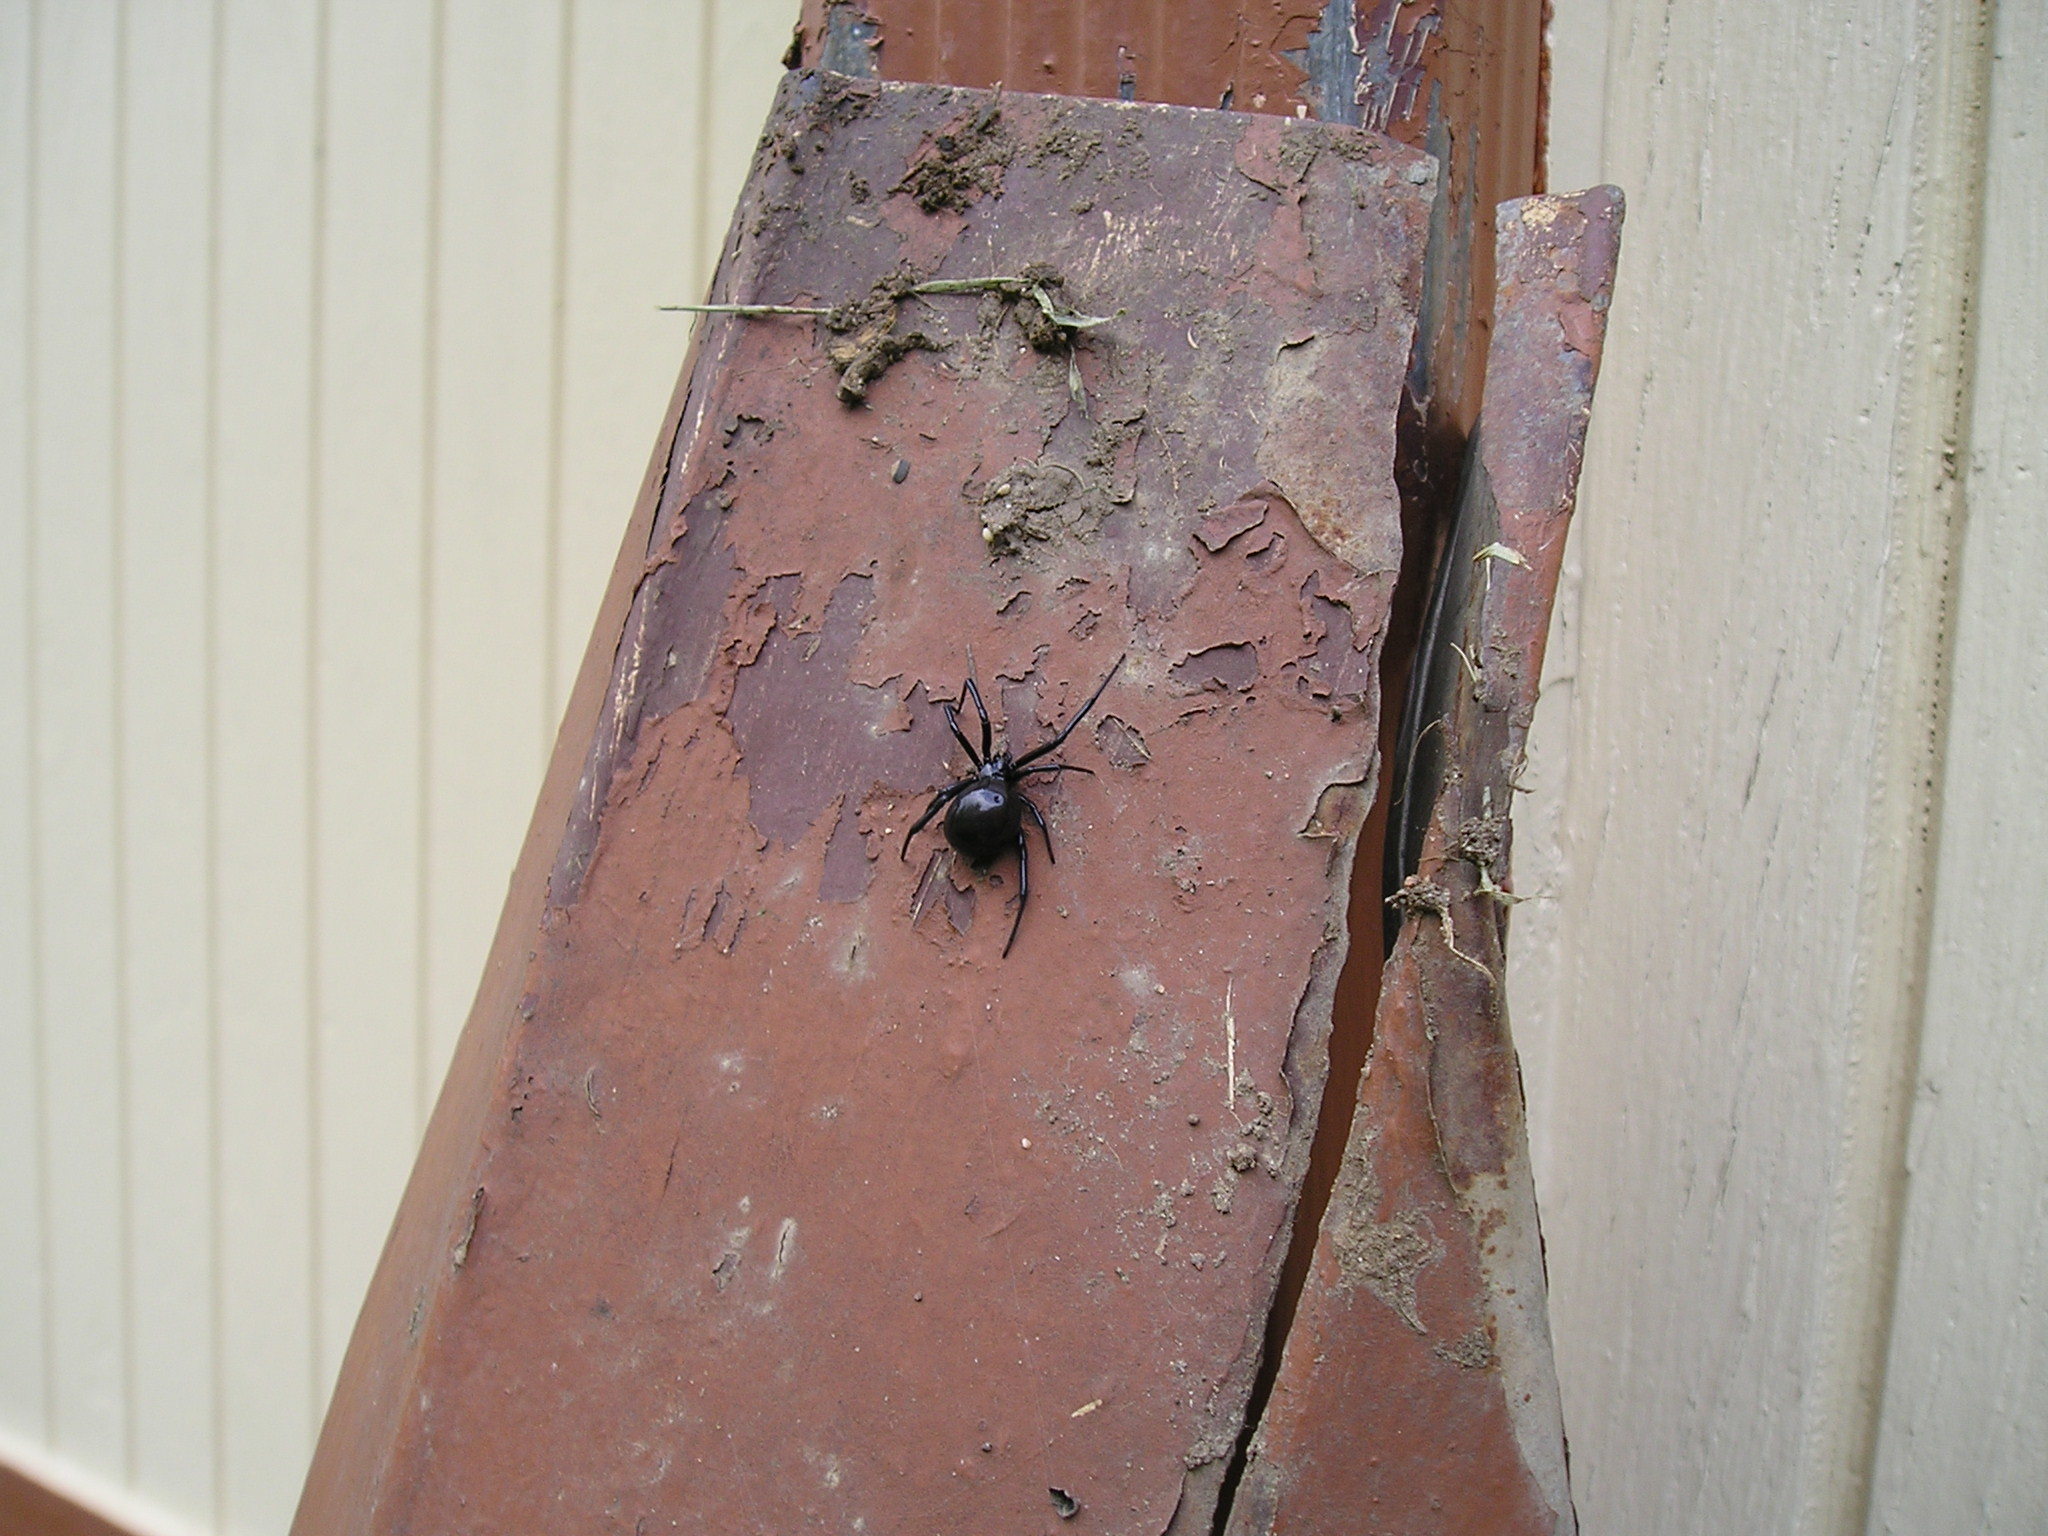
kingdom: Animalia
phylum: Arthropoda
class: Arachnida
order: Araneae
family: Theridiidae
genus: Latrodectus
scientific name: Latrodectus hesperus
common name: Western black widow
